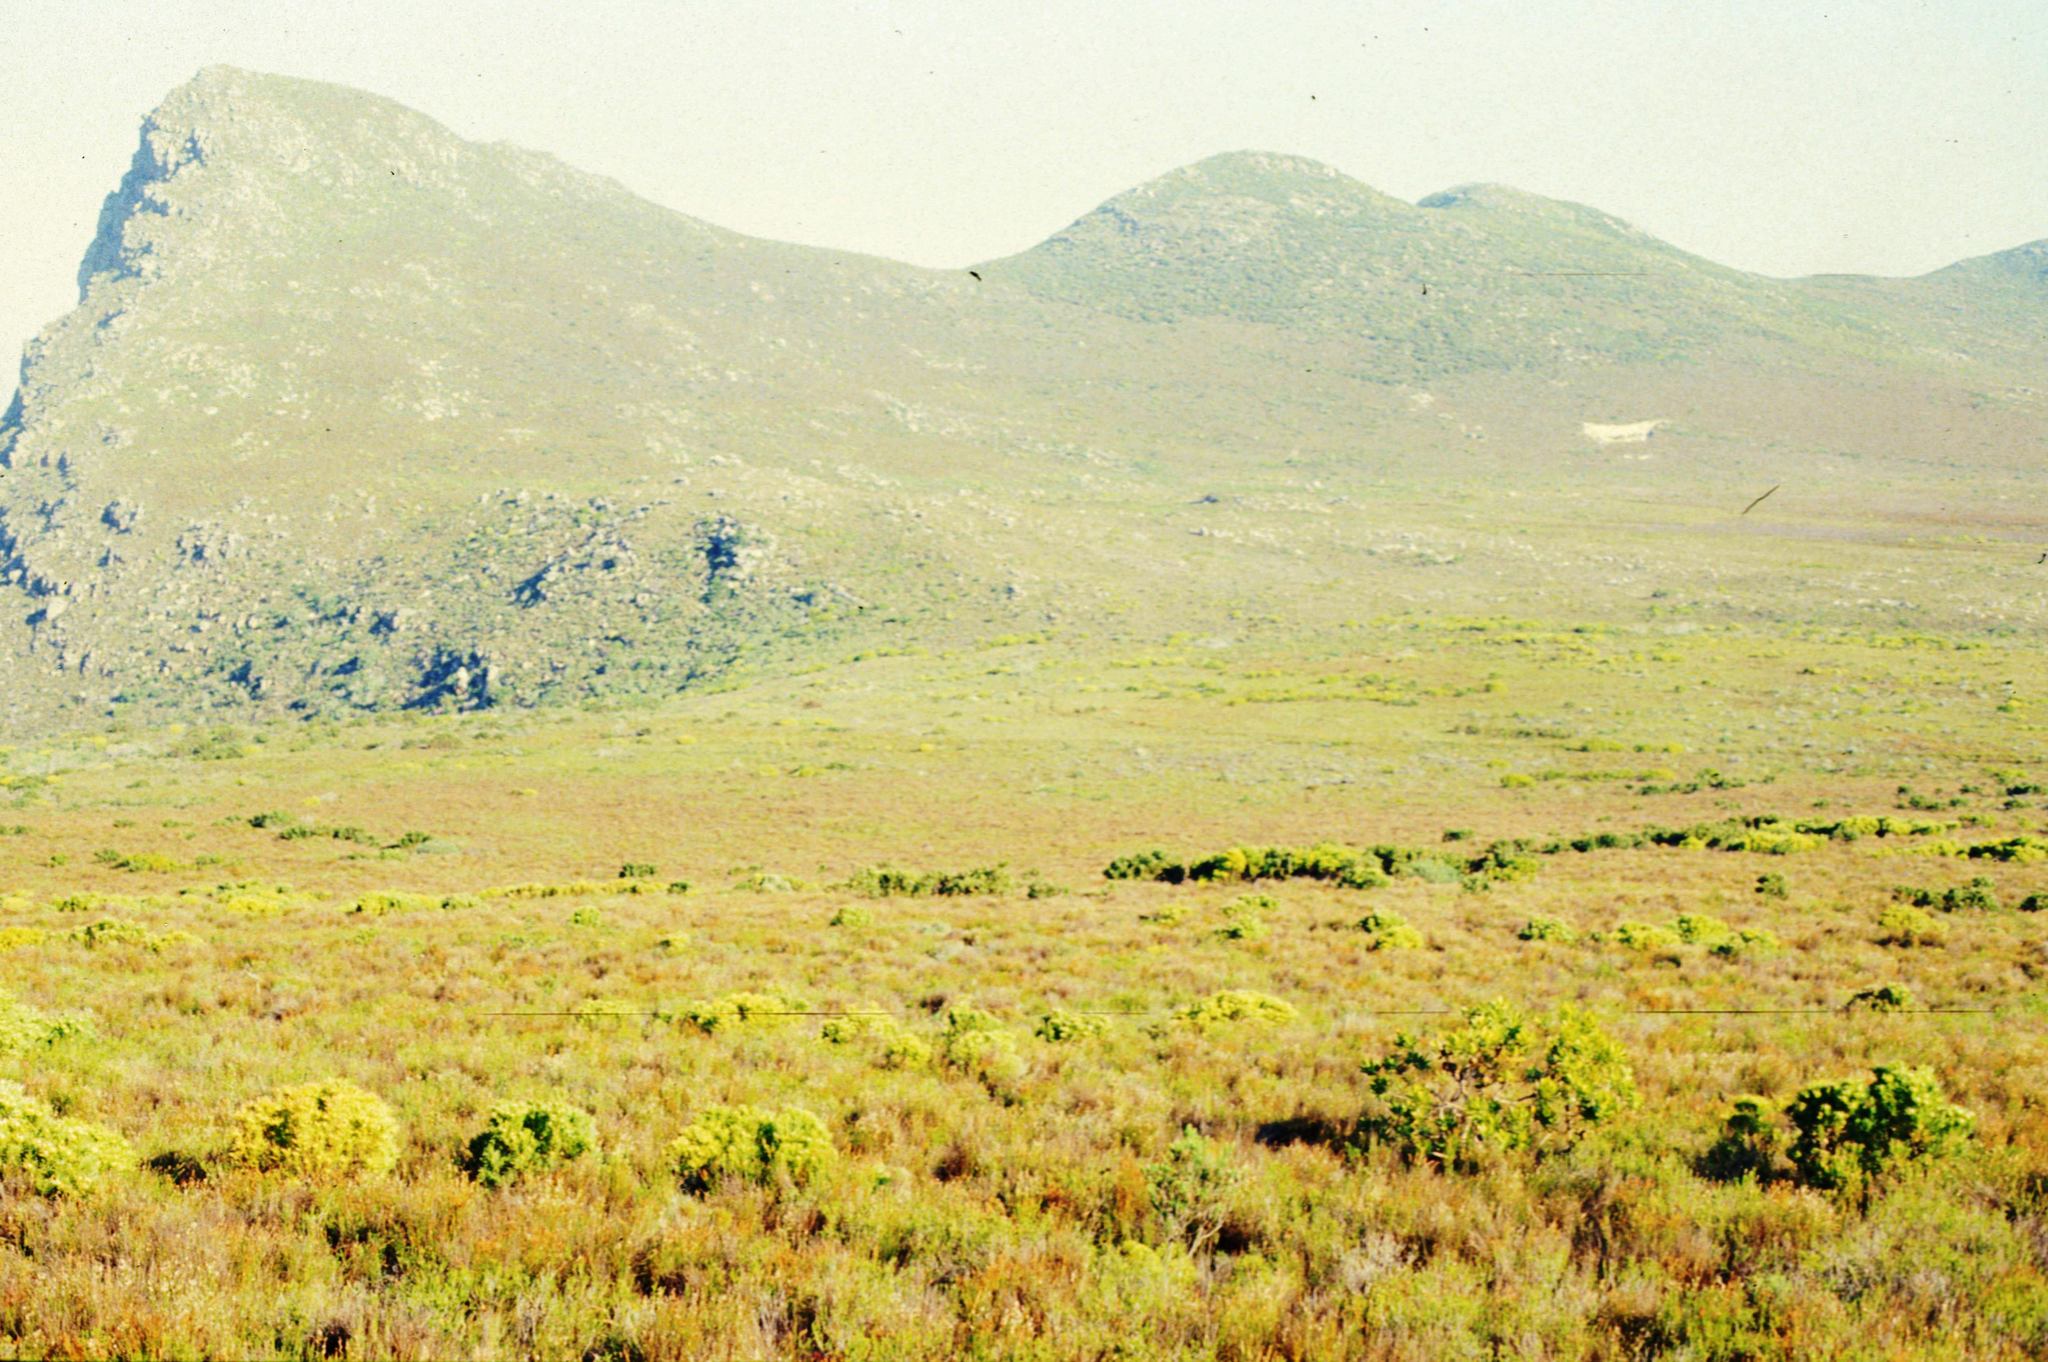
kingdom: Plantae
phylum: Tracheophyta
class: Magnoliopsida
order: Bruniales
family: Bruniaceae
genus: Audouinia
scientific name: Audouinia capitata
